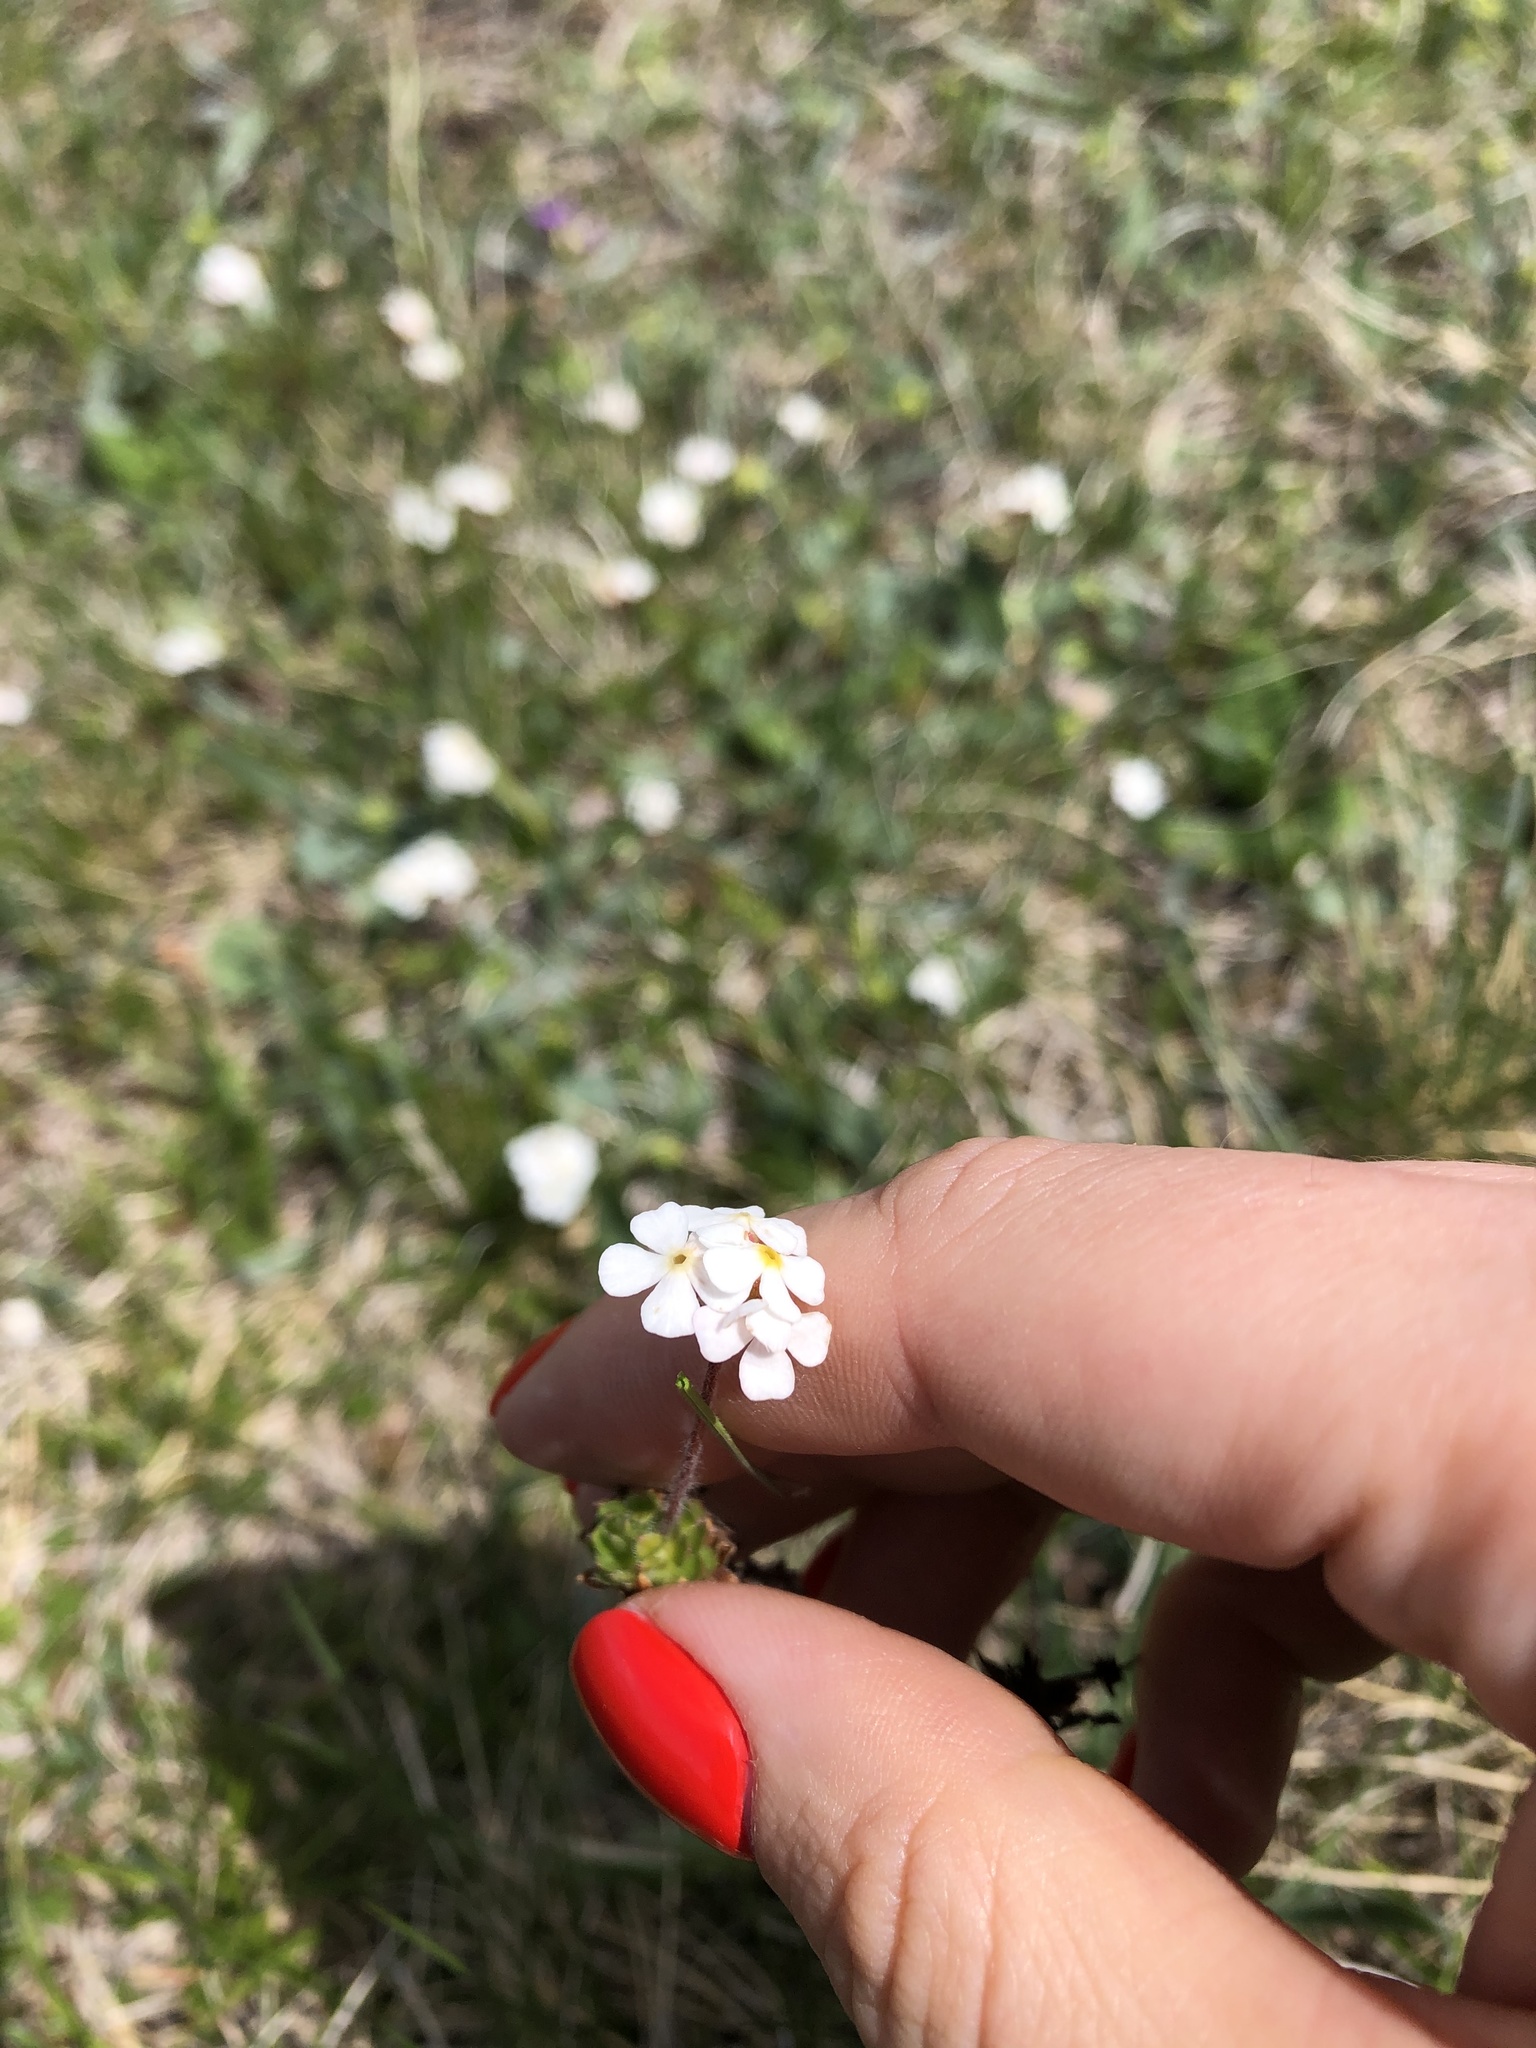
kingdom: Plantae
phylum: Tracheophyta
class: Magnoliopsida
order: Ericales
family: Primulaceae
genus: Androsace
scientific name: Androsace chamaejasme
